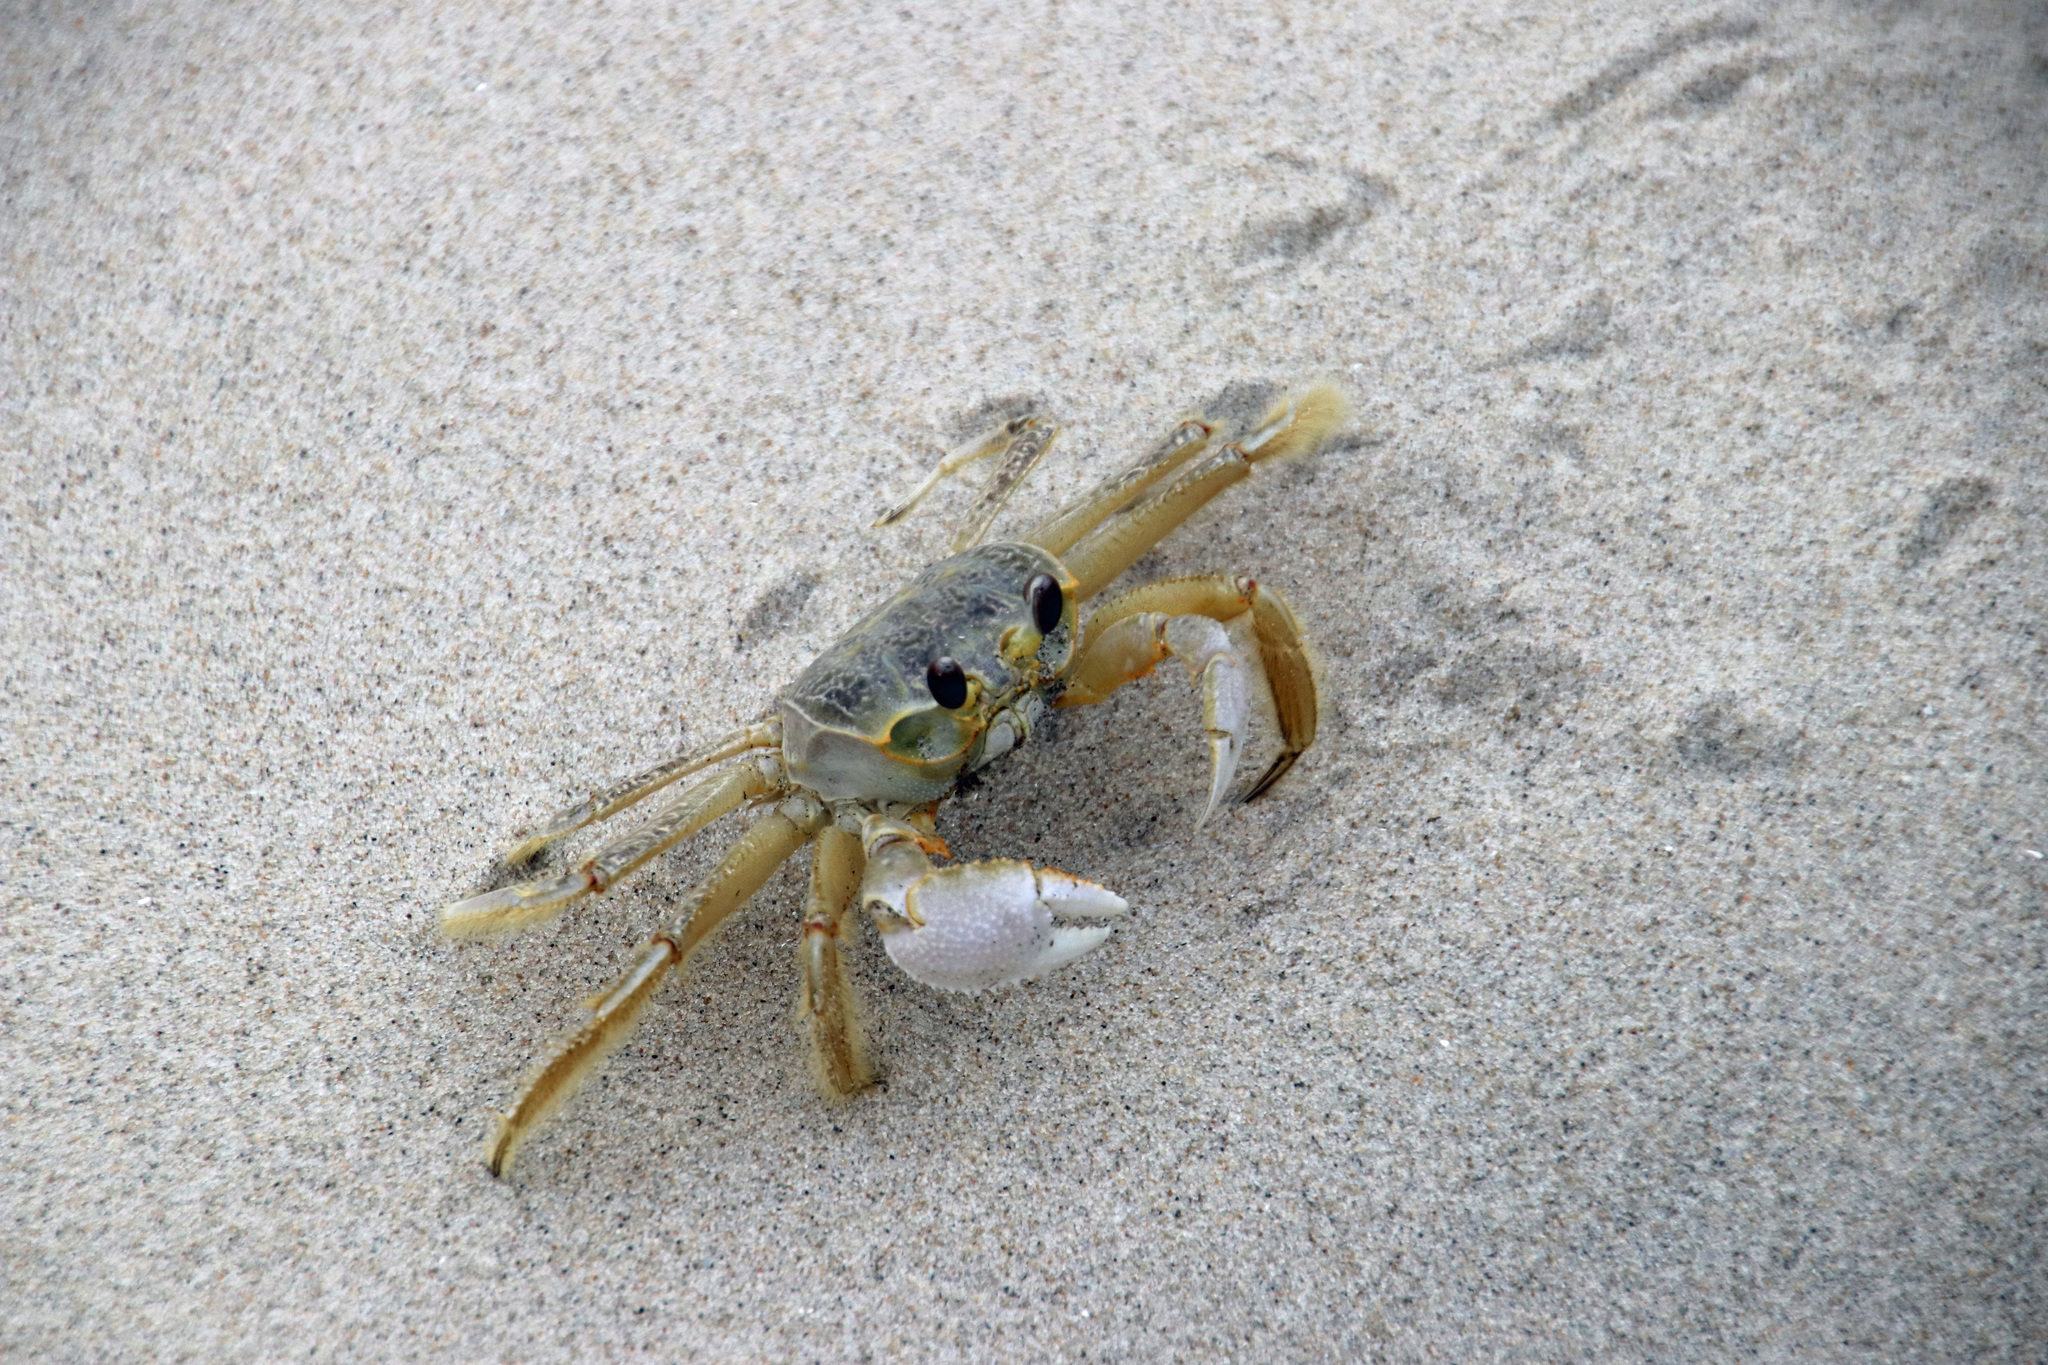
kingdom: Animalia
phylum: Arthropoda
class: Malacostraca
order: Decapoda
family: Ocypodidae
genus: Ocypode
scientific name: Ocypode quadrata
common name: Ghost crab
